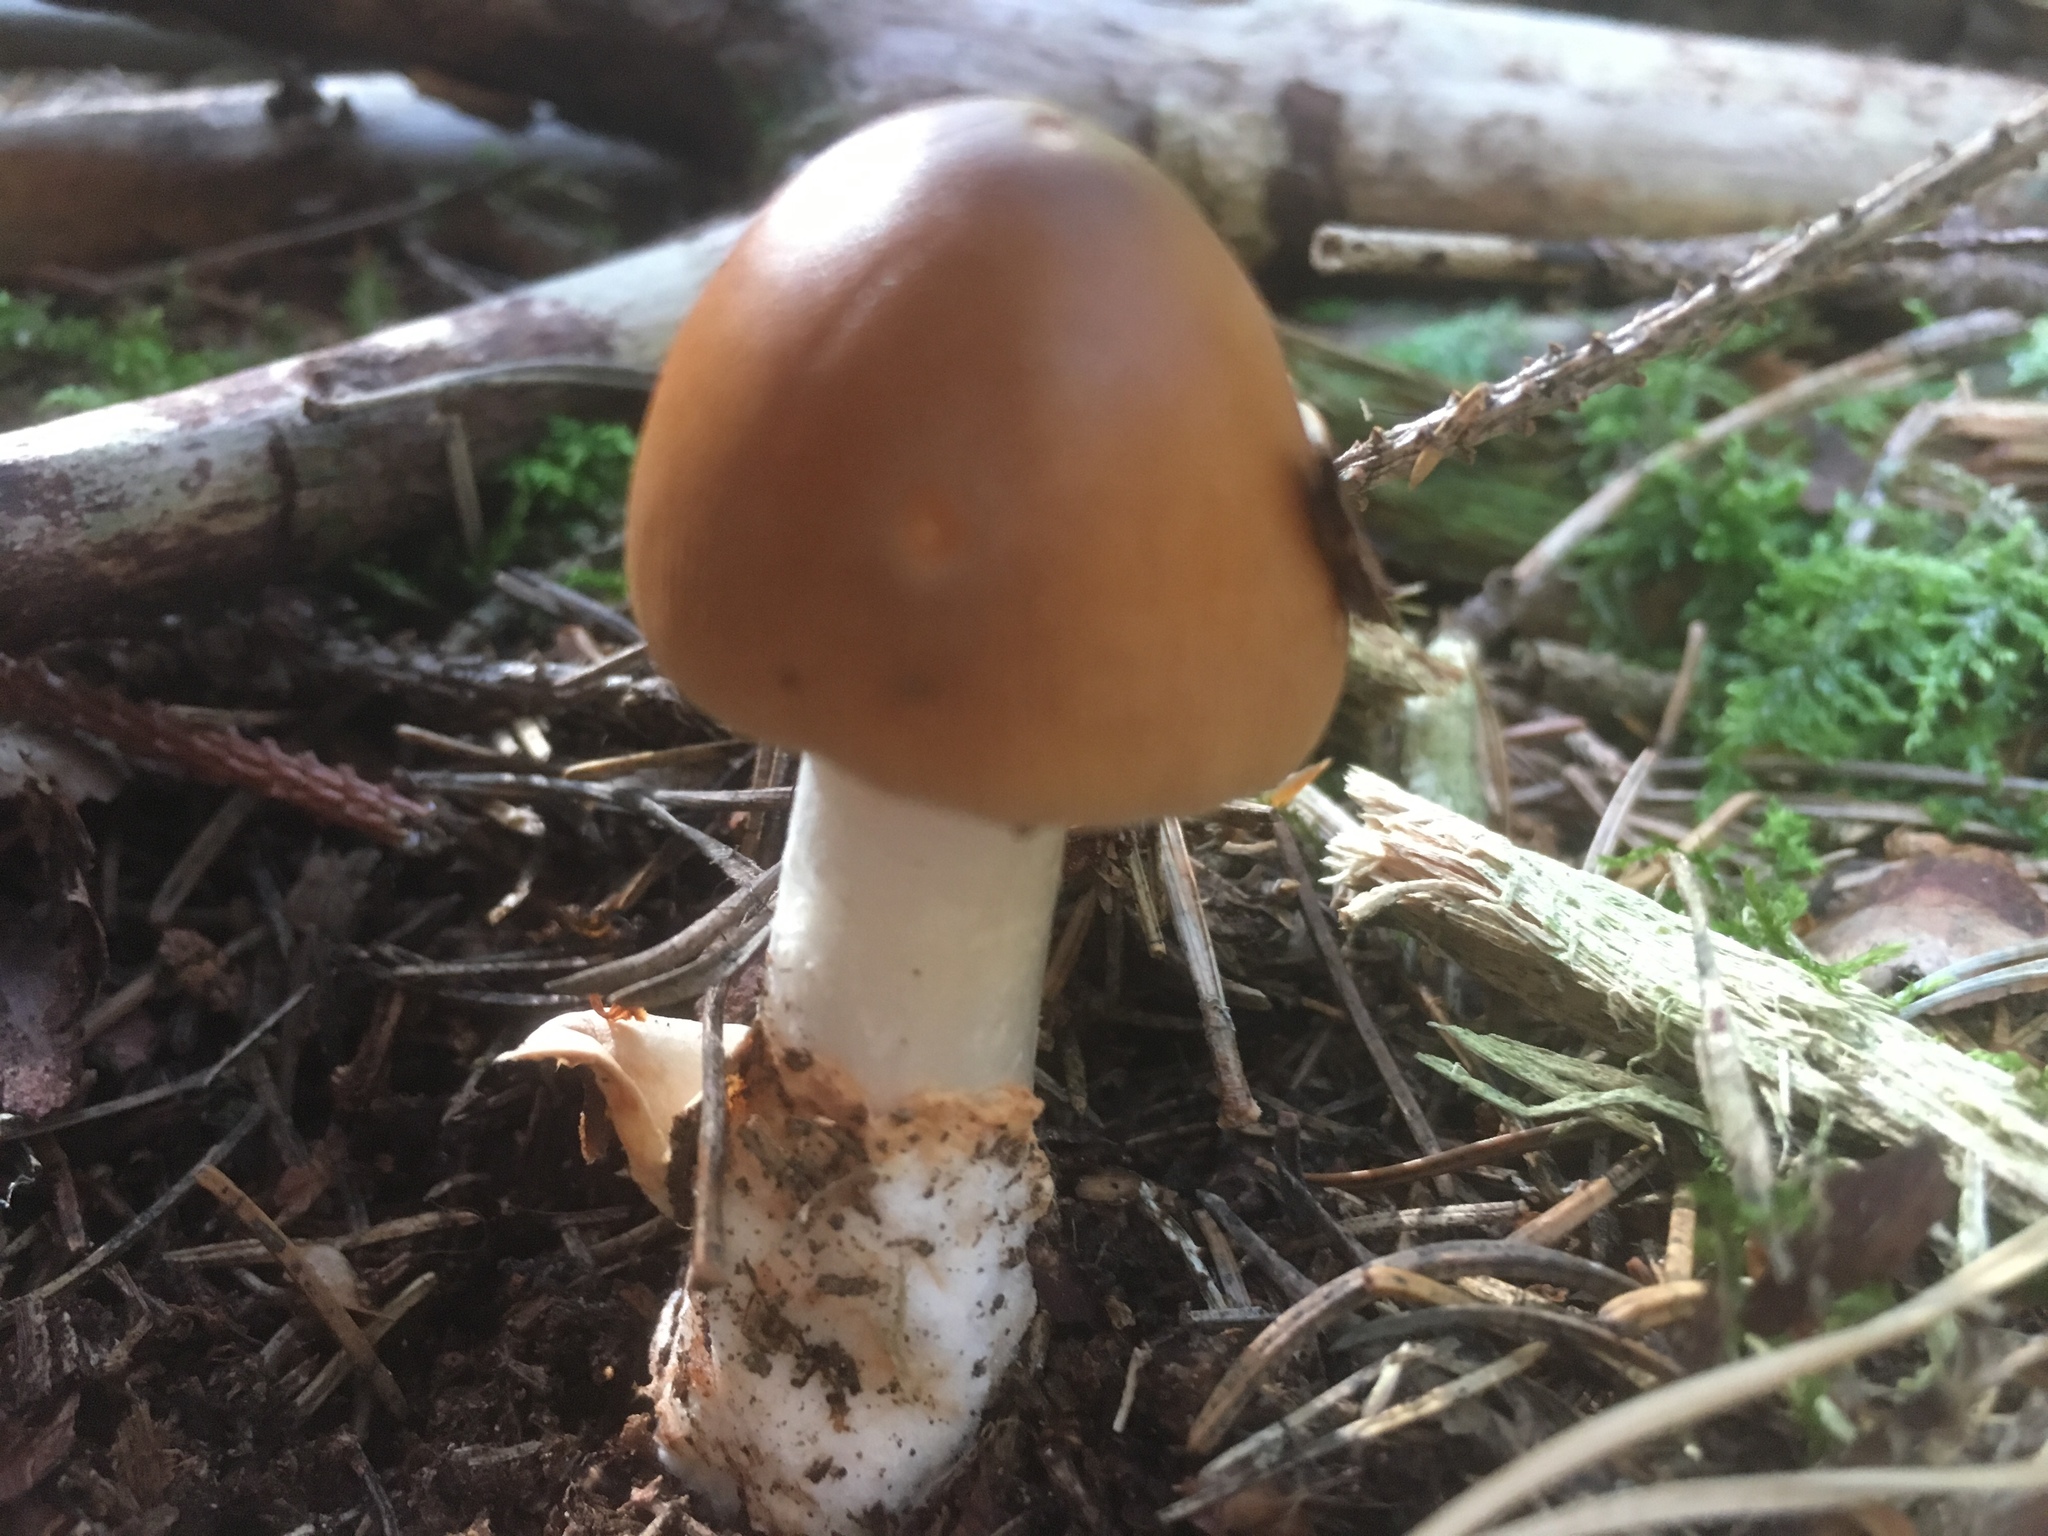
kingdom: Fungi
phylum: Basidiomycota
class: Agaricomycetes
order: Agaricales
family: Amanitaceae
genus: Amanita
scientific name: Amanita fulva
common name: Tawny grisette
